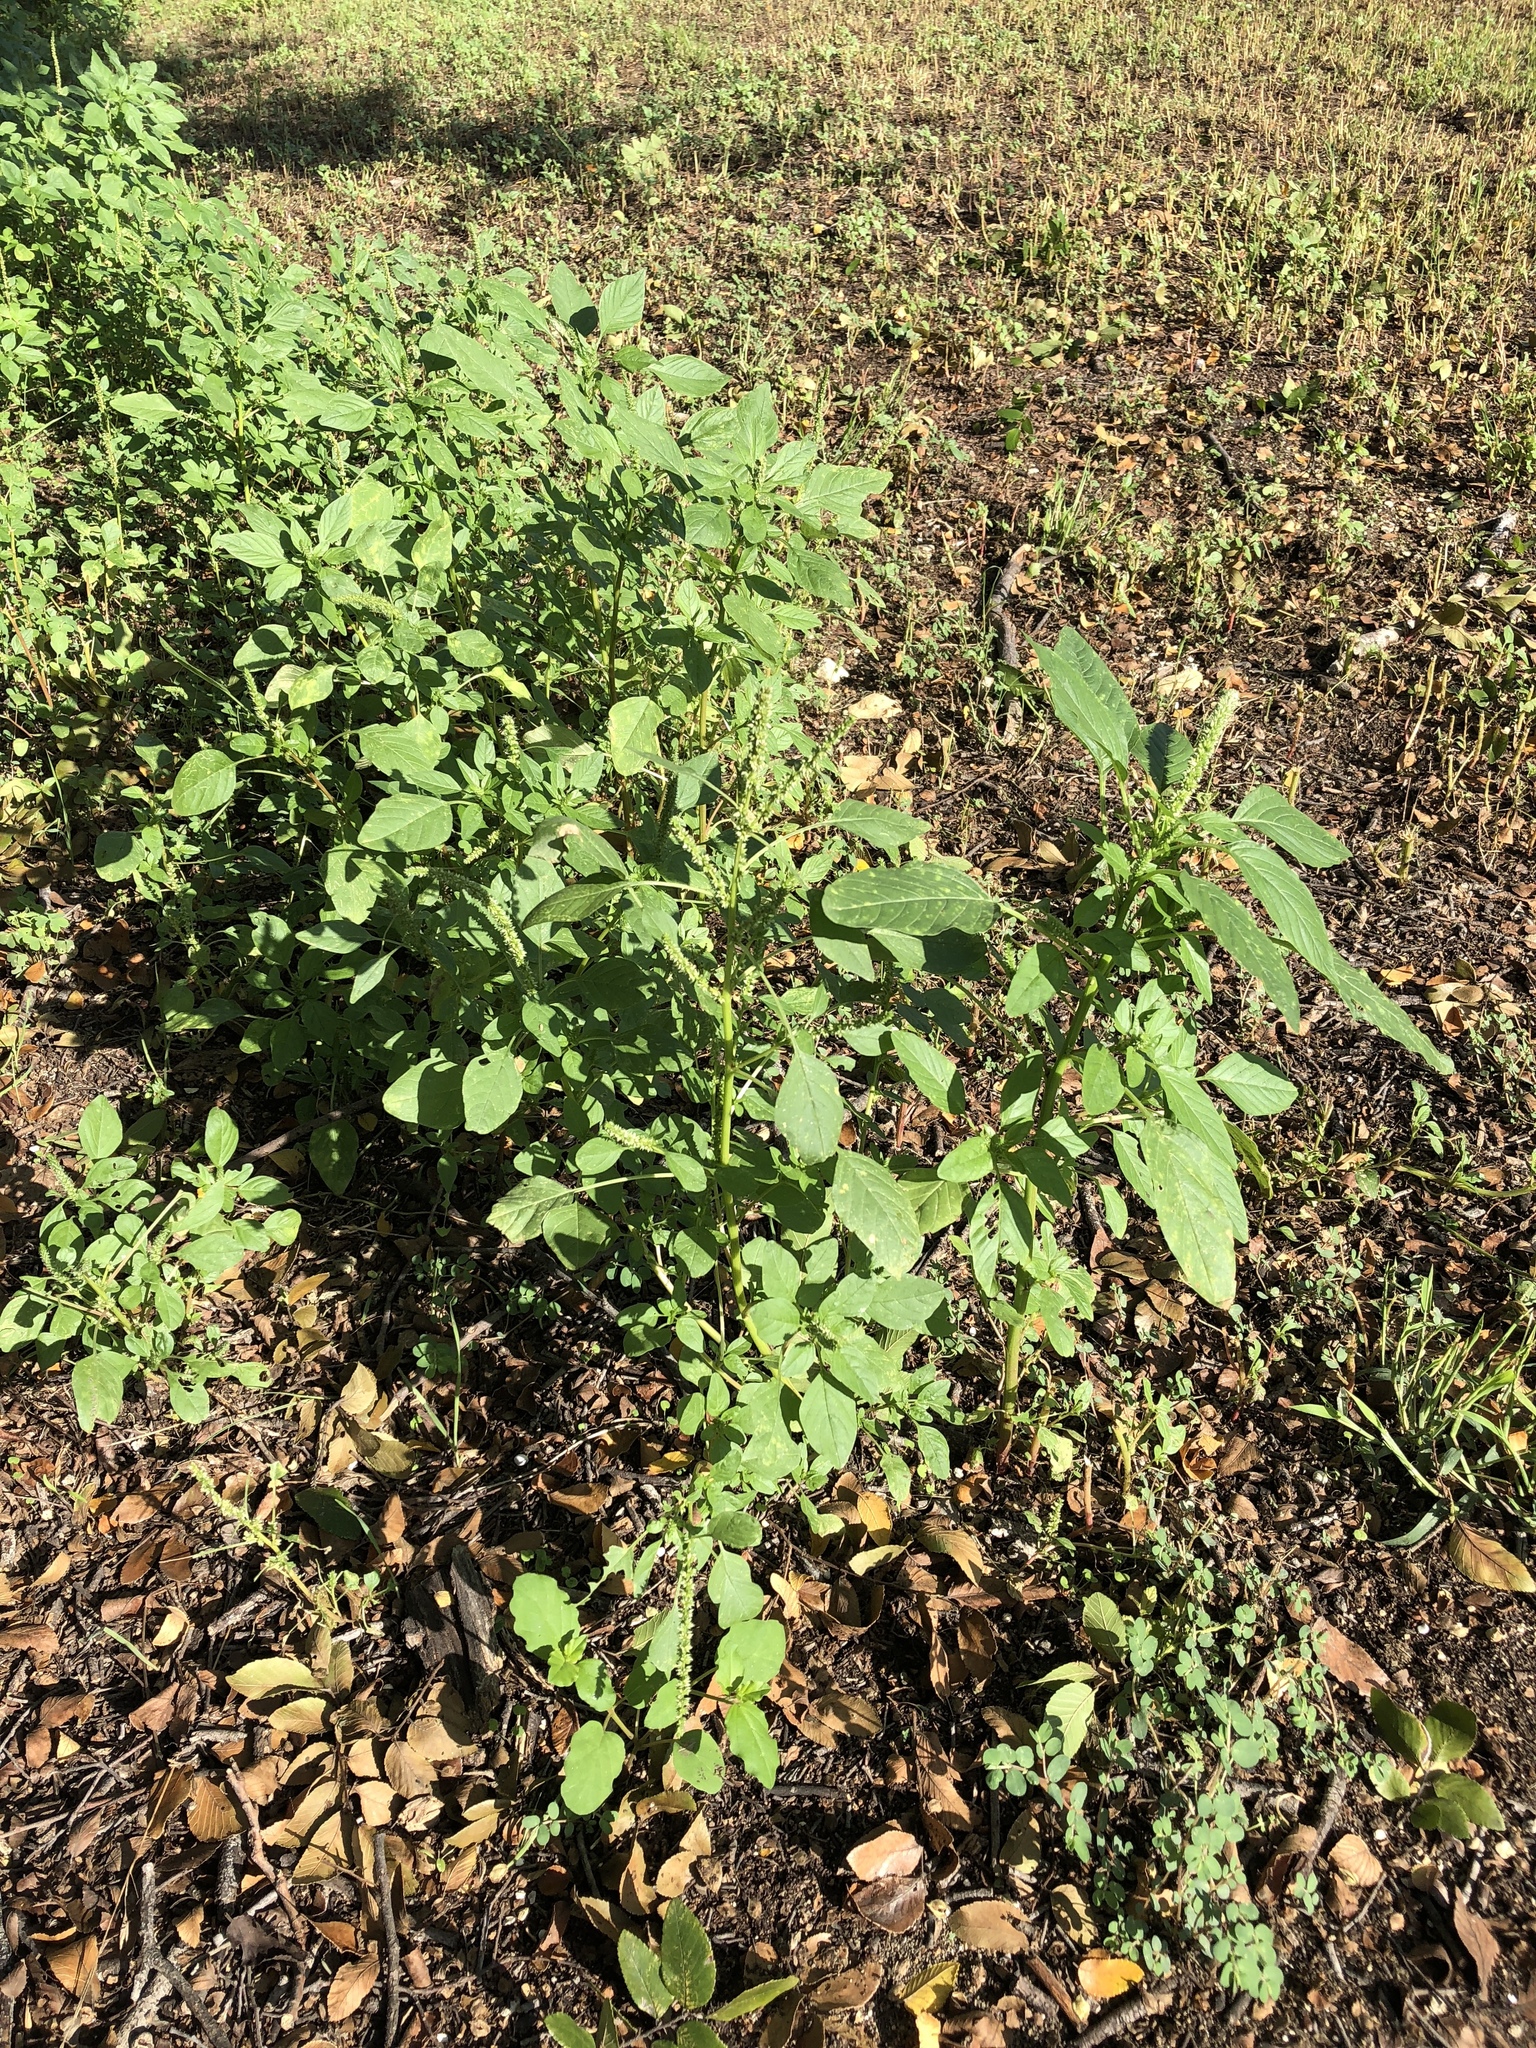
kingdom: Plantae
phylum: Tracheophyta
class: Magnoliopsida
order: Caryophyllales
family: Amaranthaceae
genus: Amaranthus
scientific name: Amaranthus palmeri
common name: Dioecious amaranth
